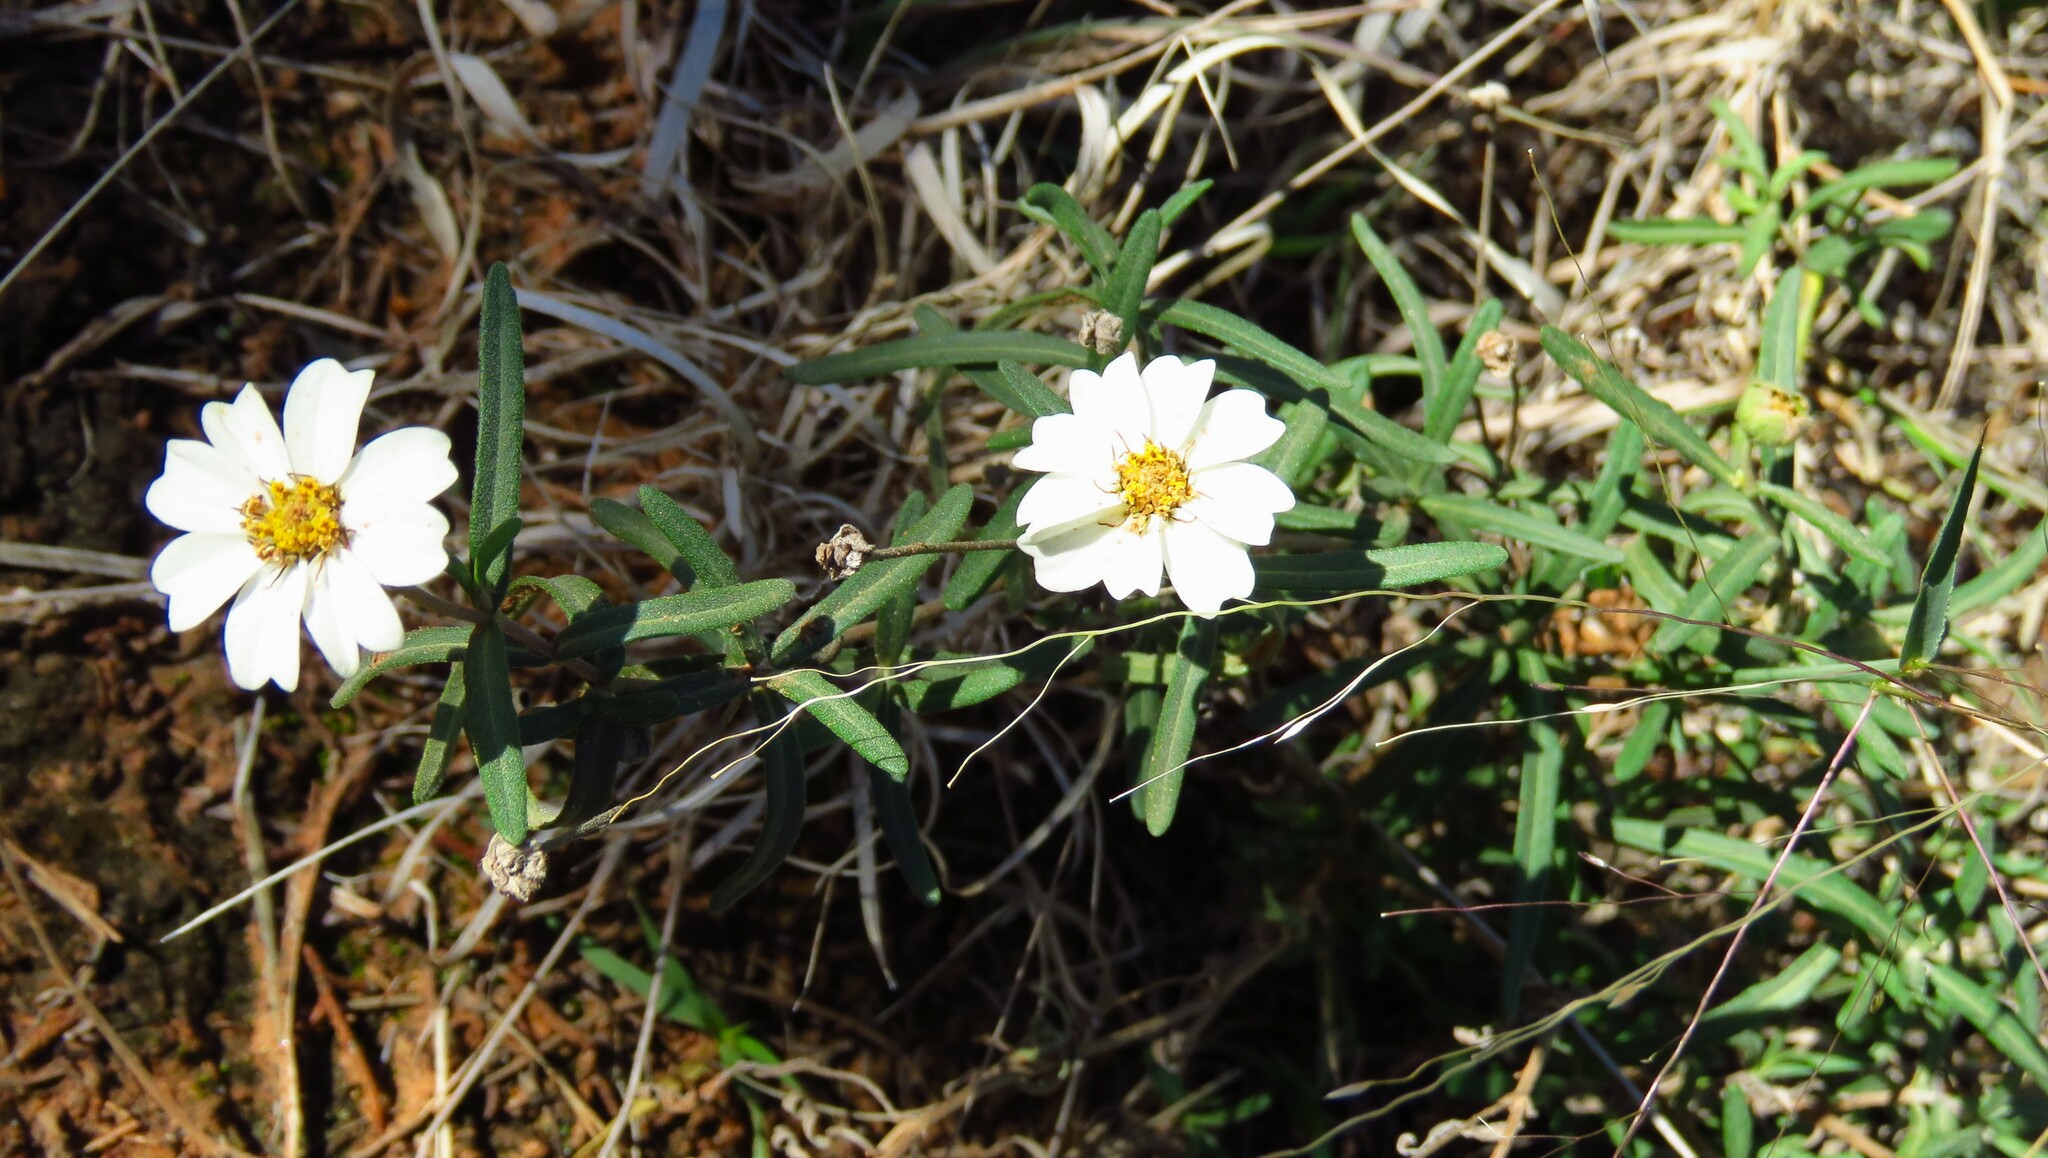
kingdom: Plantae
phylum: Tracheophyta
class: Magnoliopsida
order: Asterales
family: Asteraceae
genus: Melampodium
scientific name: Melampodium leucanthum
